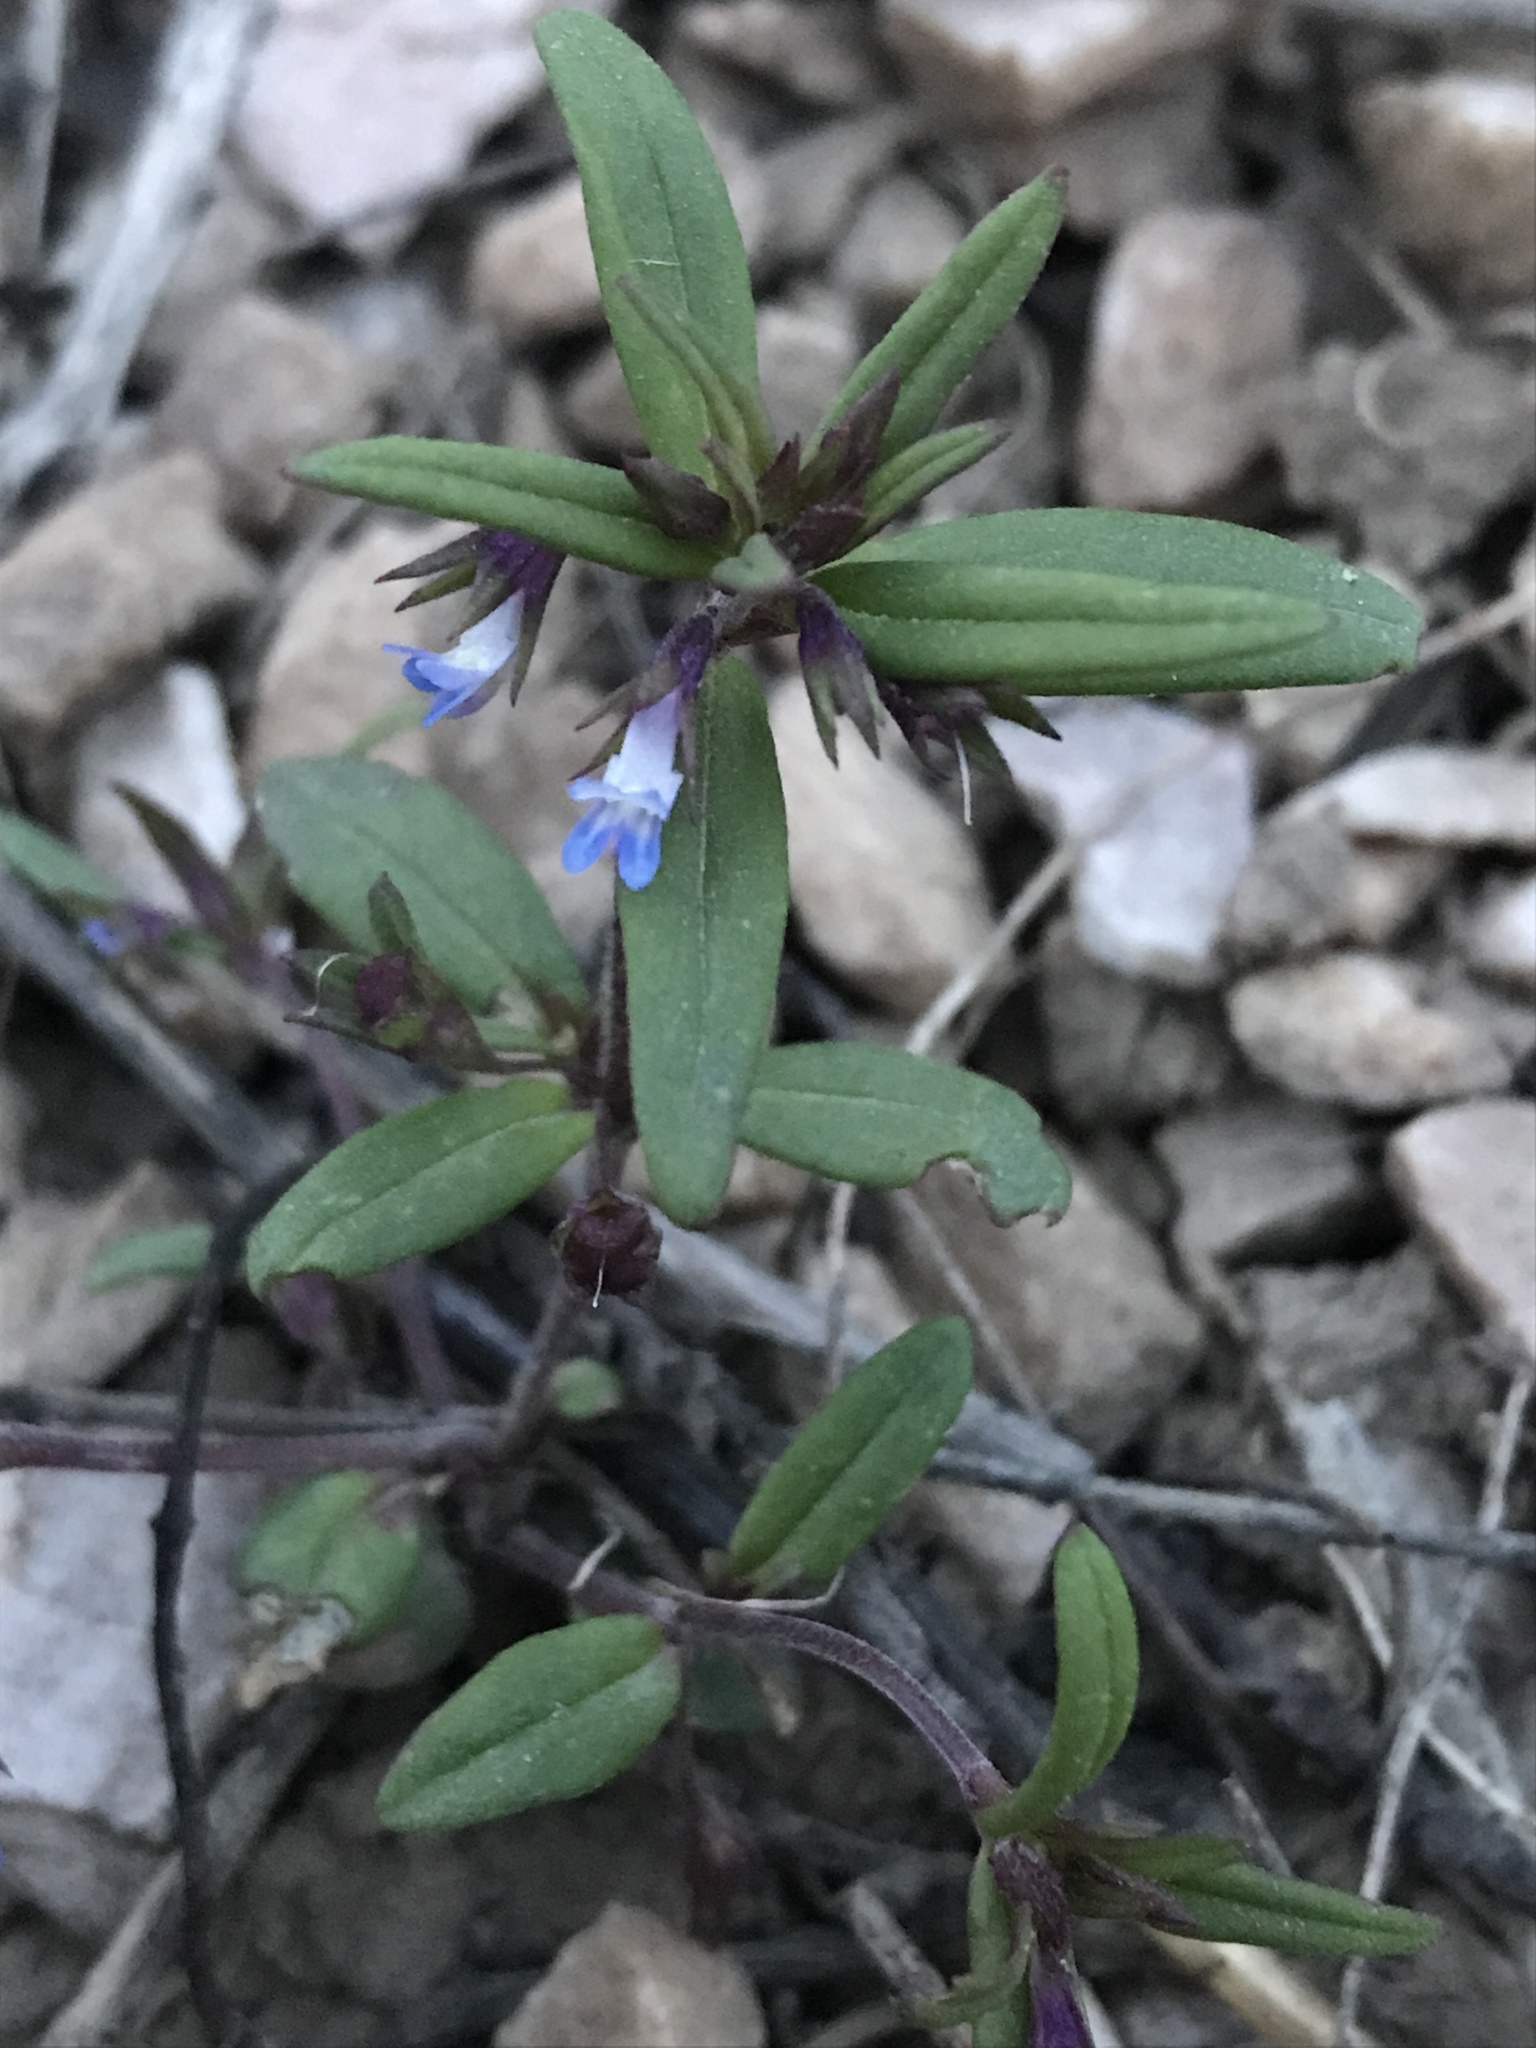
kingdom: Plantae
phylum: Tracheophyta
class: Magnoliopsida
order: Lamiales
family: Plantaginaceae
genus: Collinsia
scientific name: Collinsia parviflora
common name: Blue-lips
